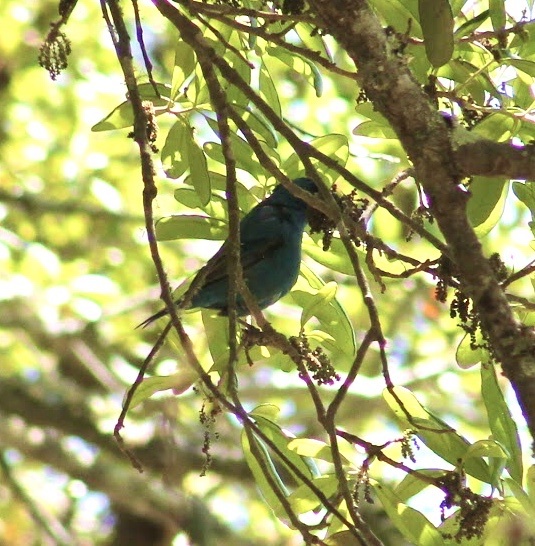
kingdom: Animalia
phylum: Chordata
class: Aves
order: Passeriformes
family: Cardinalidae
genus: Passerina
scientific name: Passerina cyanea
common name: Indigo bunting
